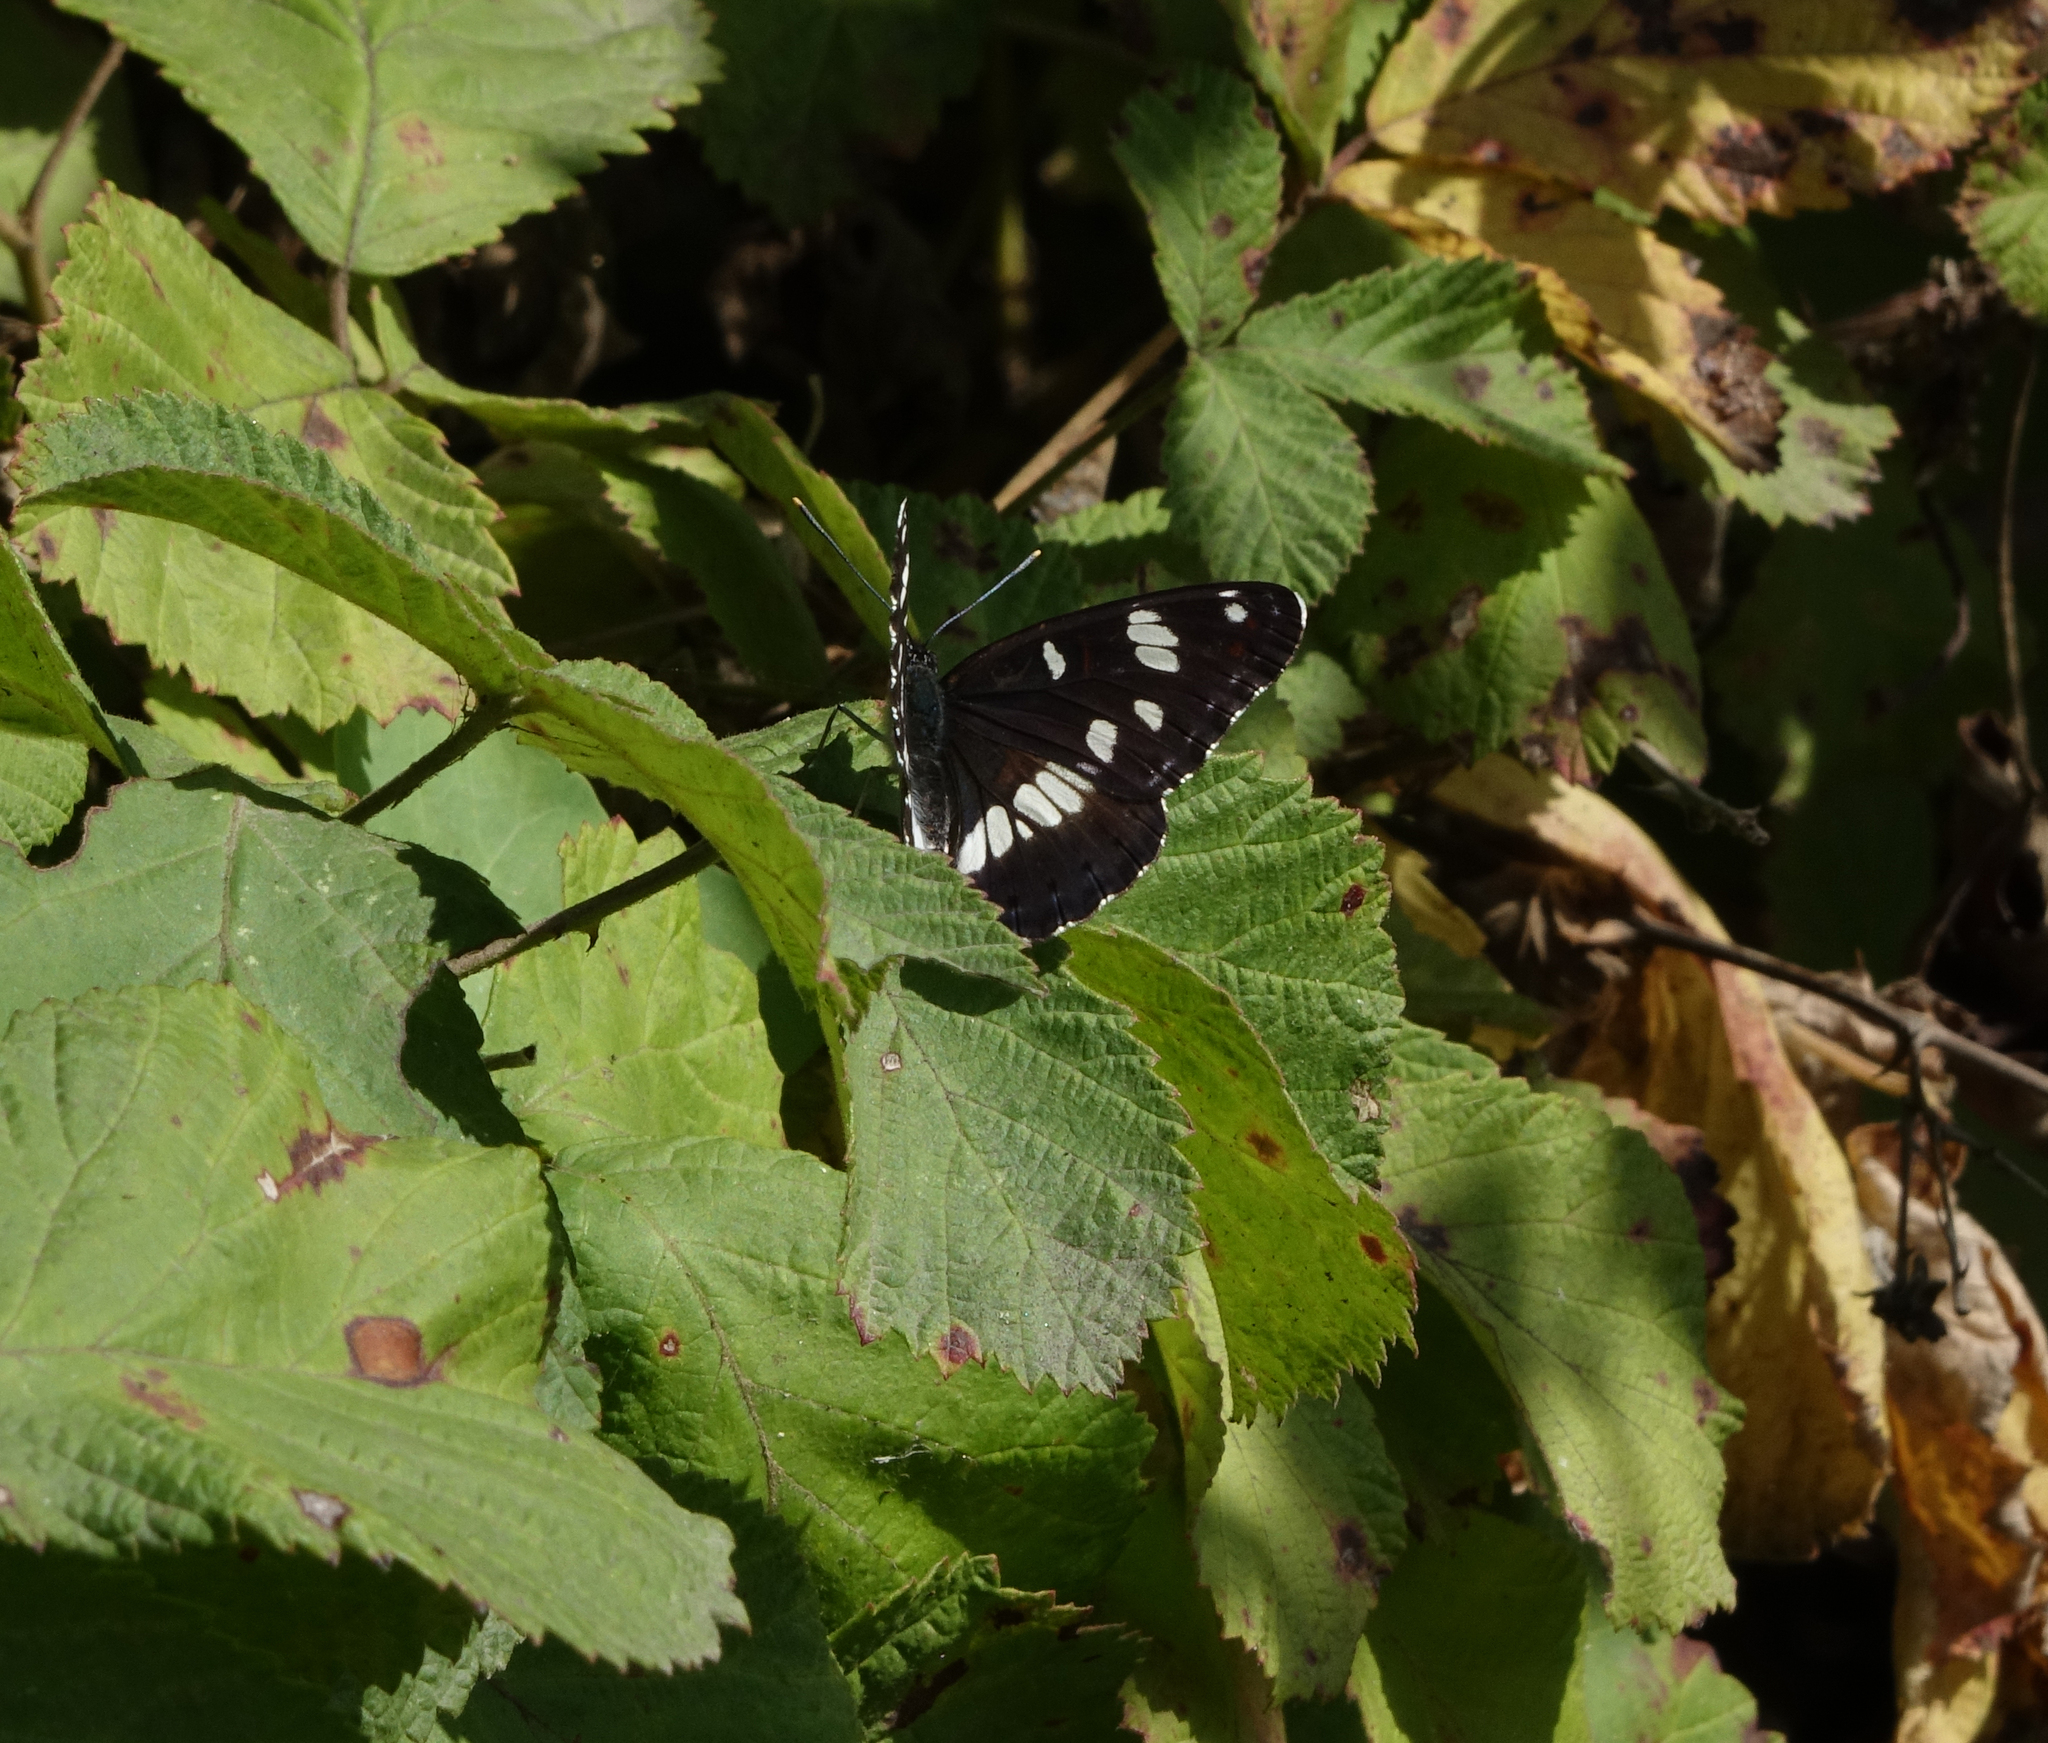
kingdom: Animalia
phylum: Arthropoda
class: Insecta
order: Lepidoptera
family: Nymphalidae
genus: Limenitis
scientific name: Limenitis reducta
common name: Southern white admiral
